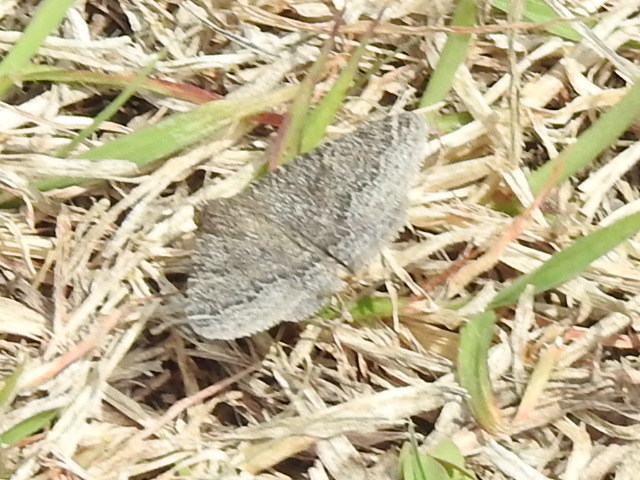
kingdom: Animalia
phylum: Arthropoda
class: Insecta
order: Lepidoptera
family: Erebidae
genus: Matigramma
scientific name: Matigramma pulverilinea
